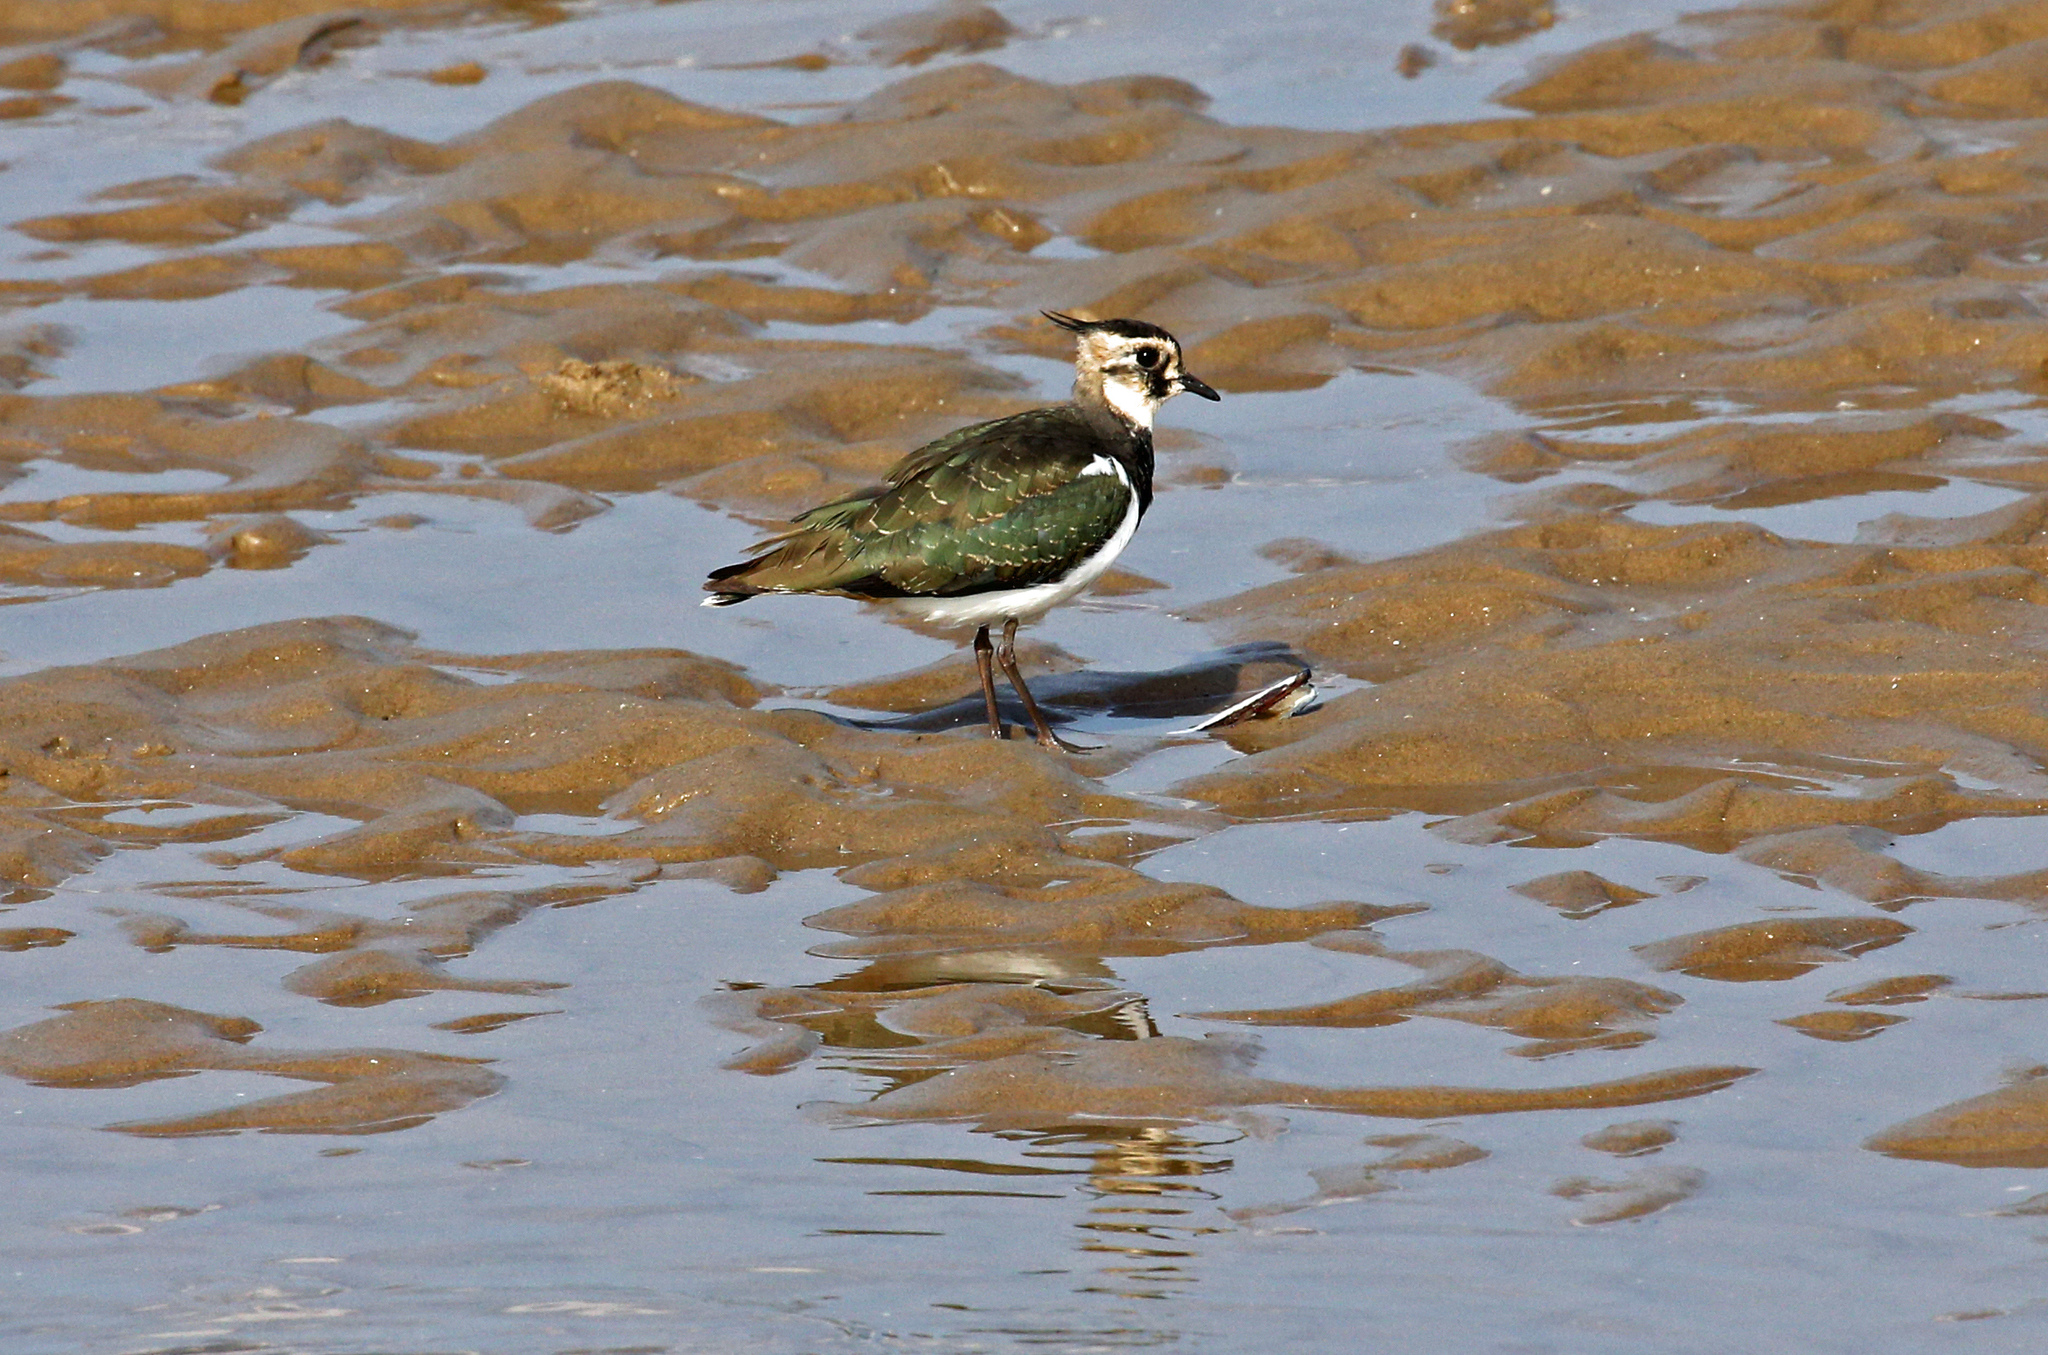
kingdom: Animalia
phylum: Chordata
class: Aves
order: Charadriiformes
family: Charadriidae
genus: Vanellus
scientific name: Vanellus vanellus
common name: Northern lapwing
